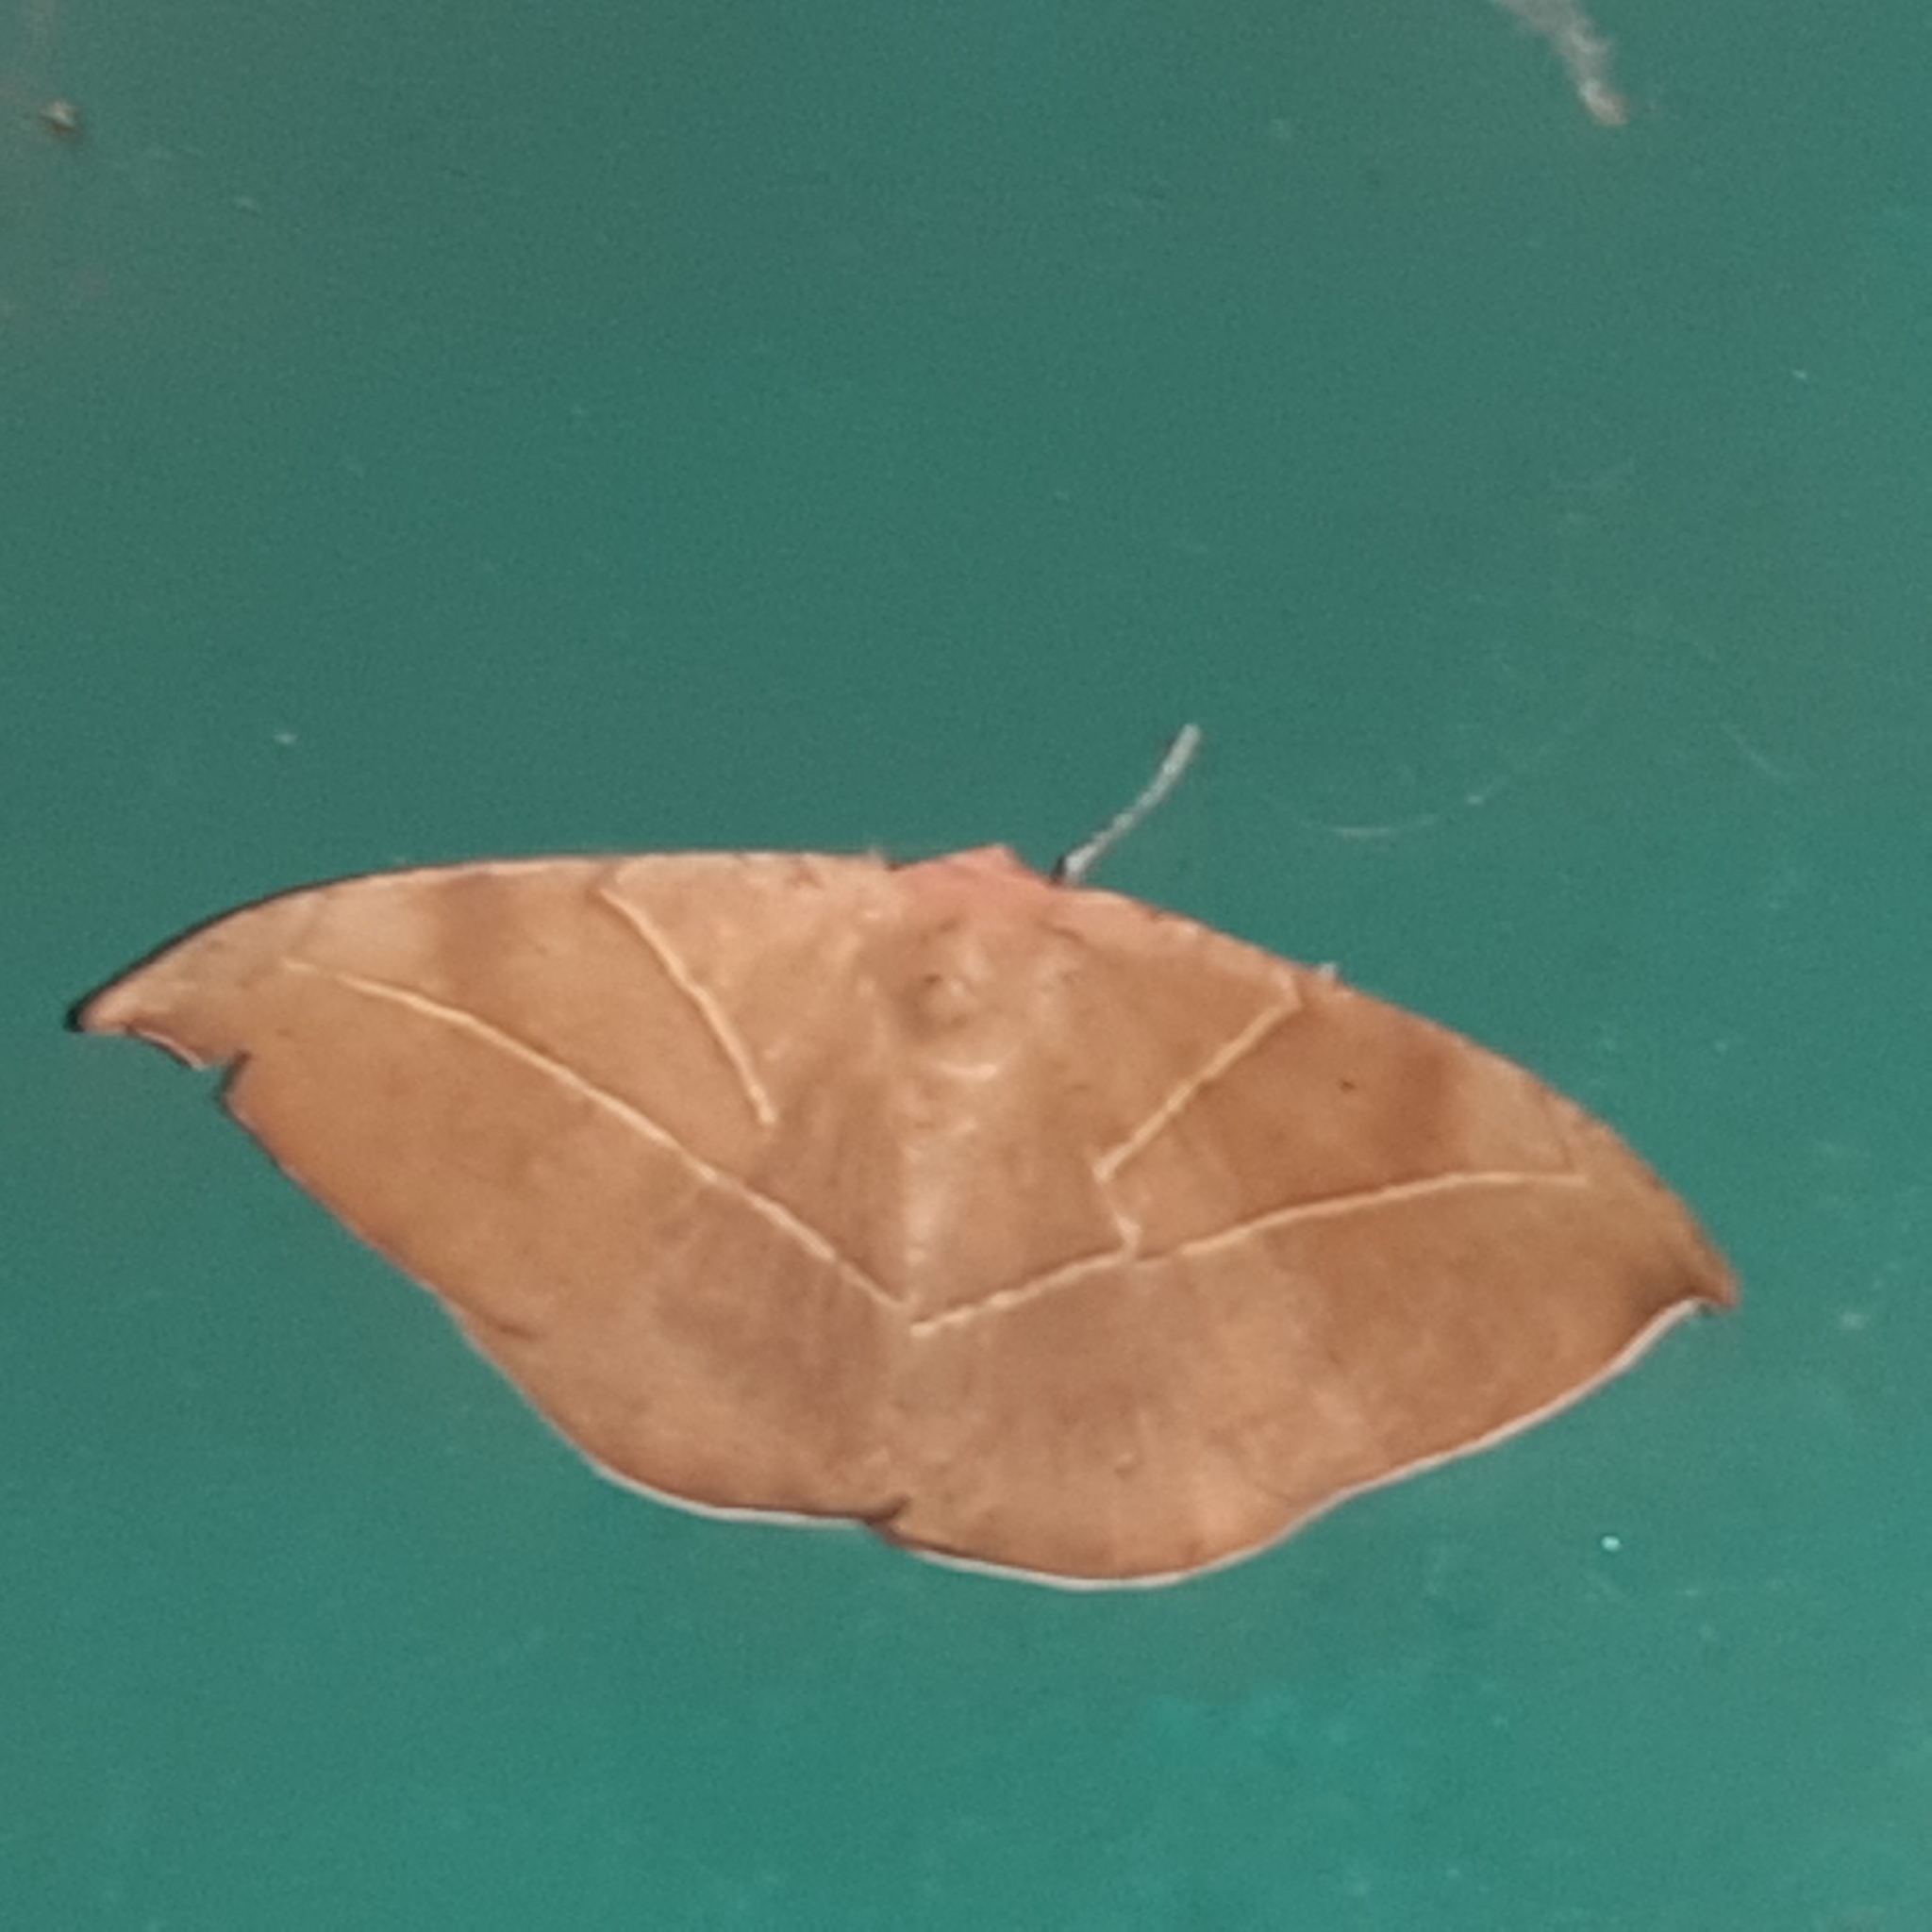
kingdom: Animalia
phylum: Arthropoda
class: Insecta
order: Lepidoptera
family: Geometridae
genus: Oxydia
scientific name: Oxydia trychiata
